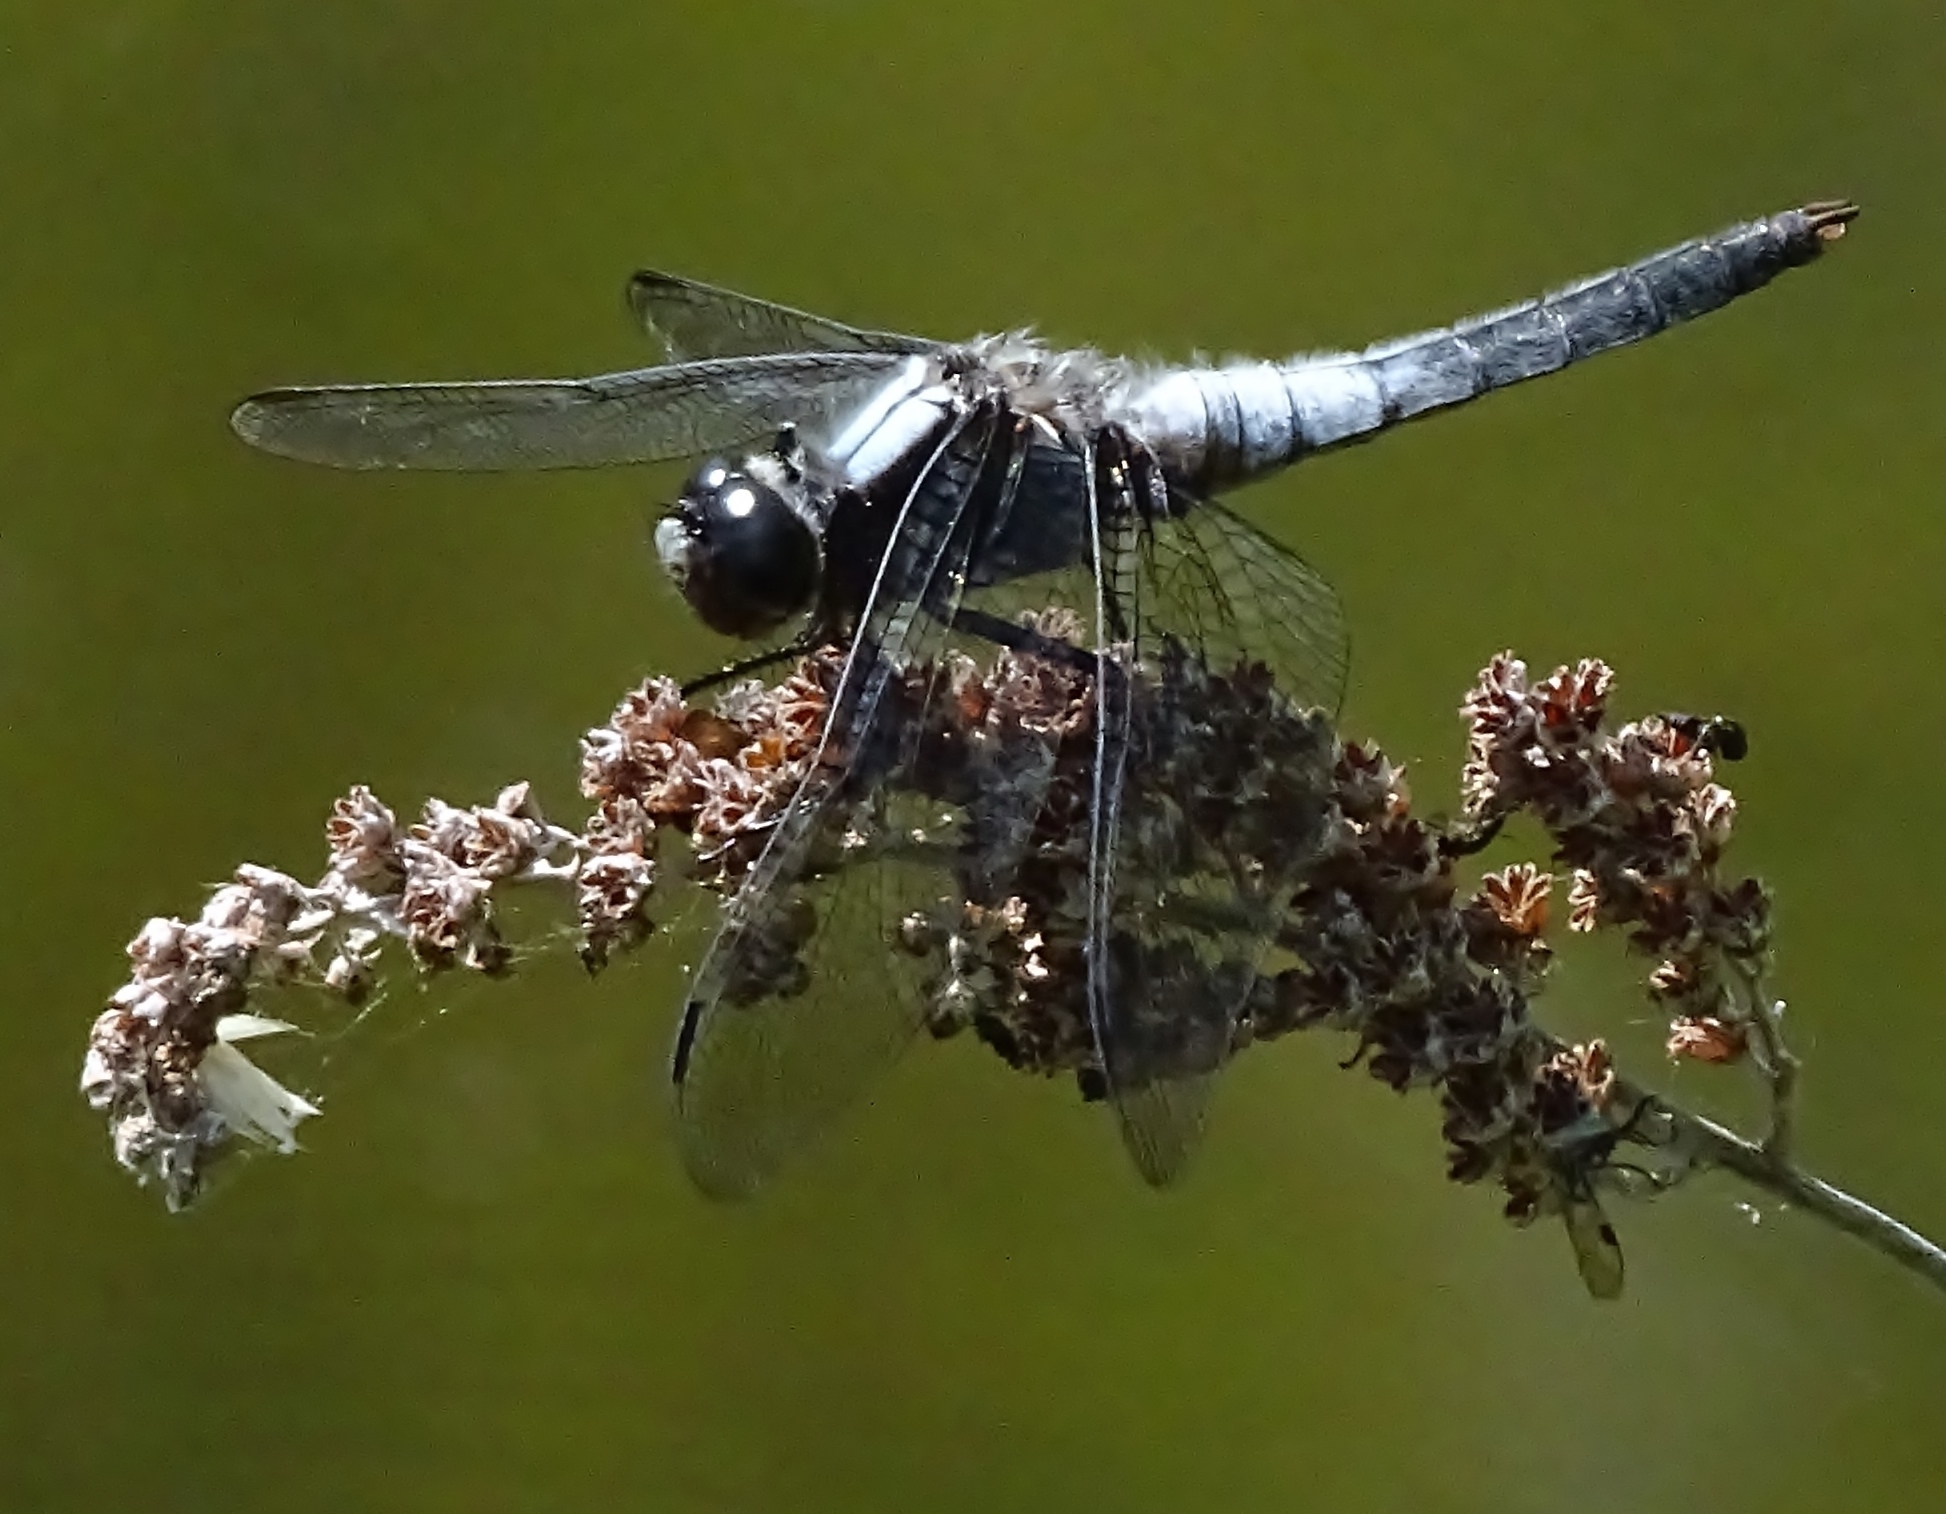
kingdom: Animalia
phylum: Arthropoda
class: Insecta
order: Odonata
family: Libellulidae
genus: Ladona
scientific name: Ladona julia
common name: Chalk-fronted corporal
